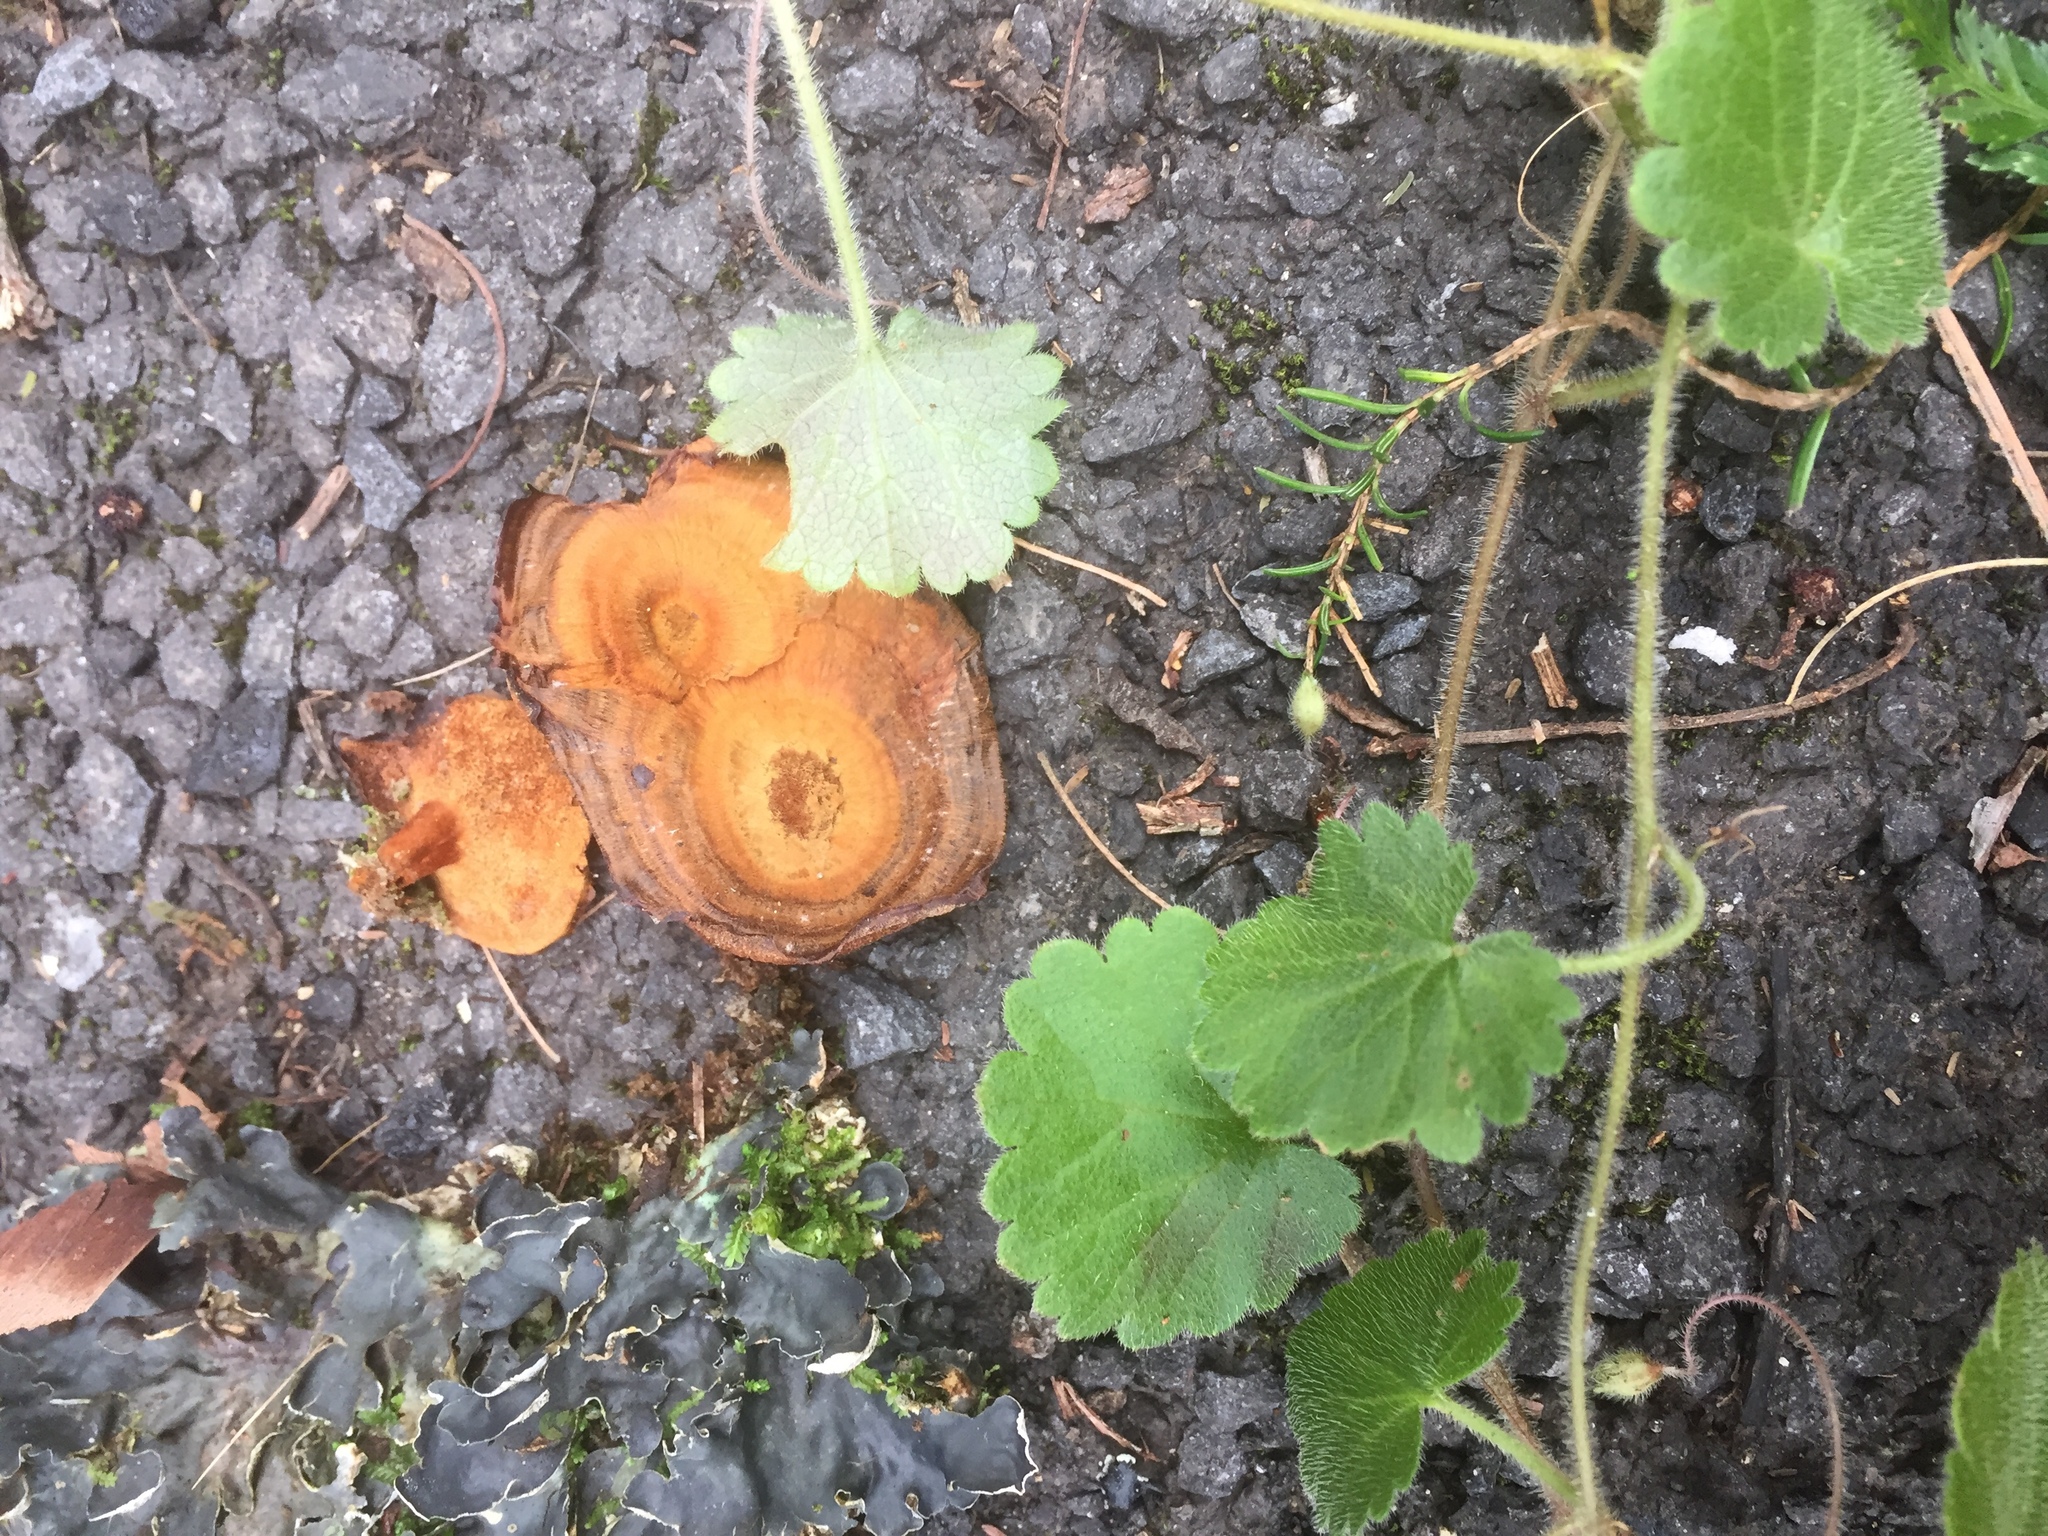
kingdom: Fungi
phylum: Basidiomycota
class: Agaricomycetes
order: Hymenochaetales
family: Hymenochaetaceae
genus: Coltricia
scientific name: Coltricia cinnamomea
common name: Shiny cinnamon polypore
